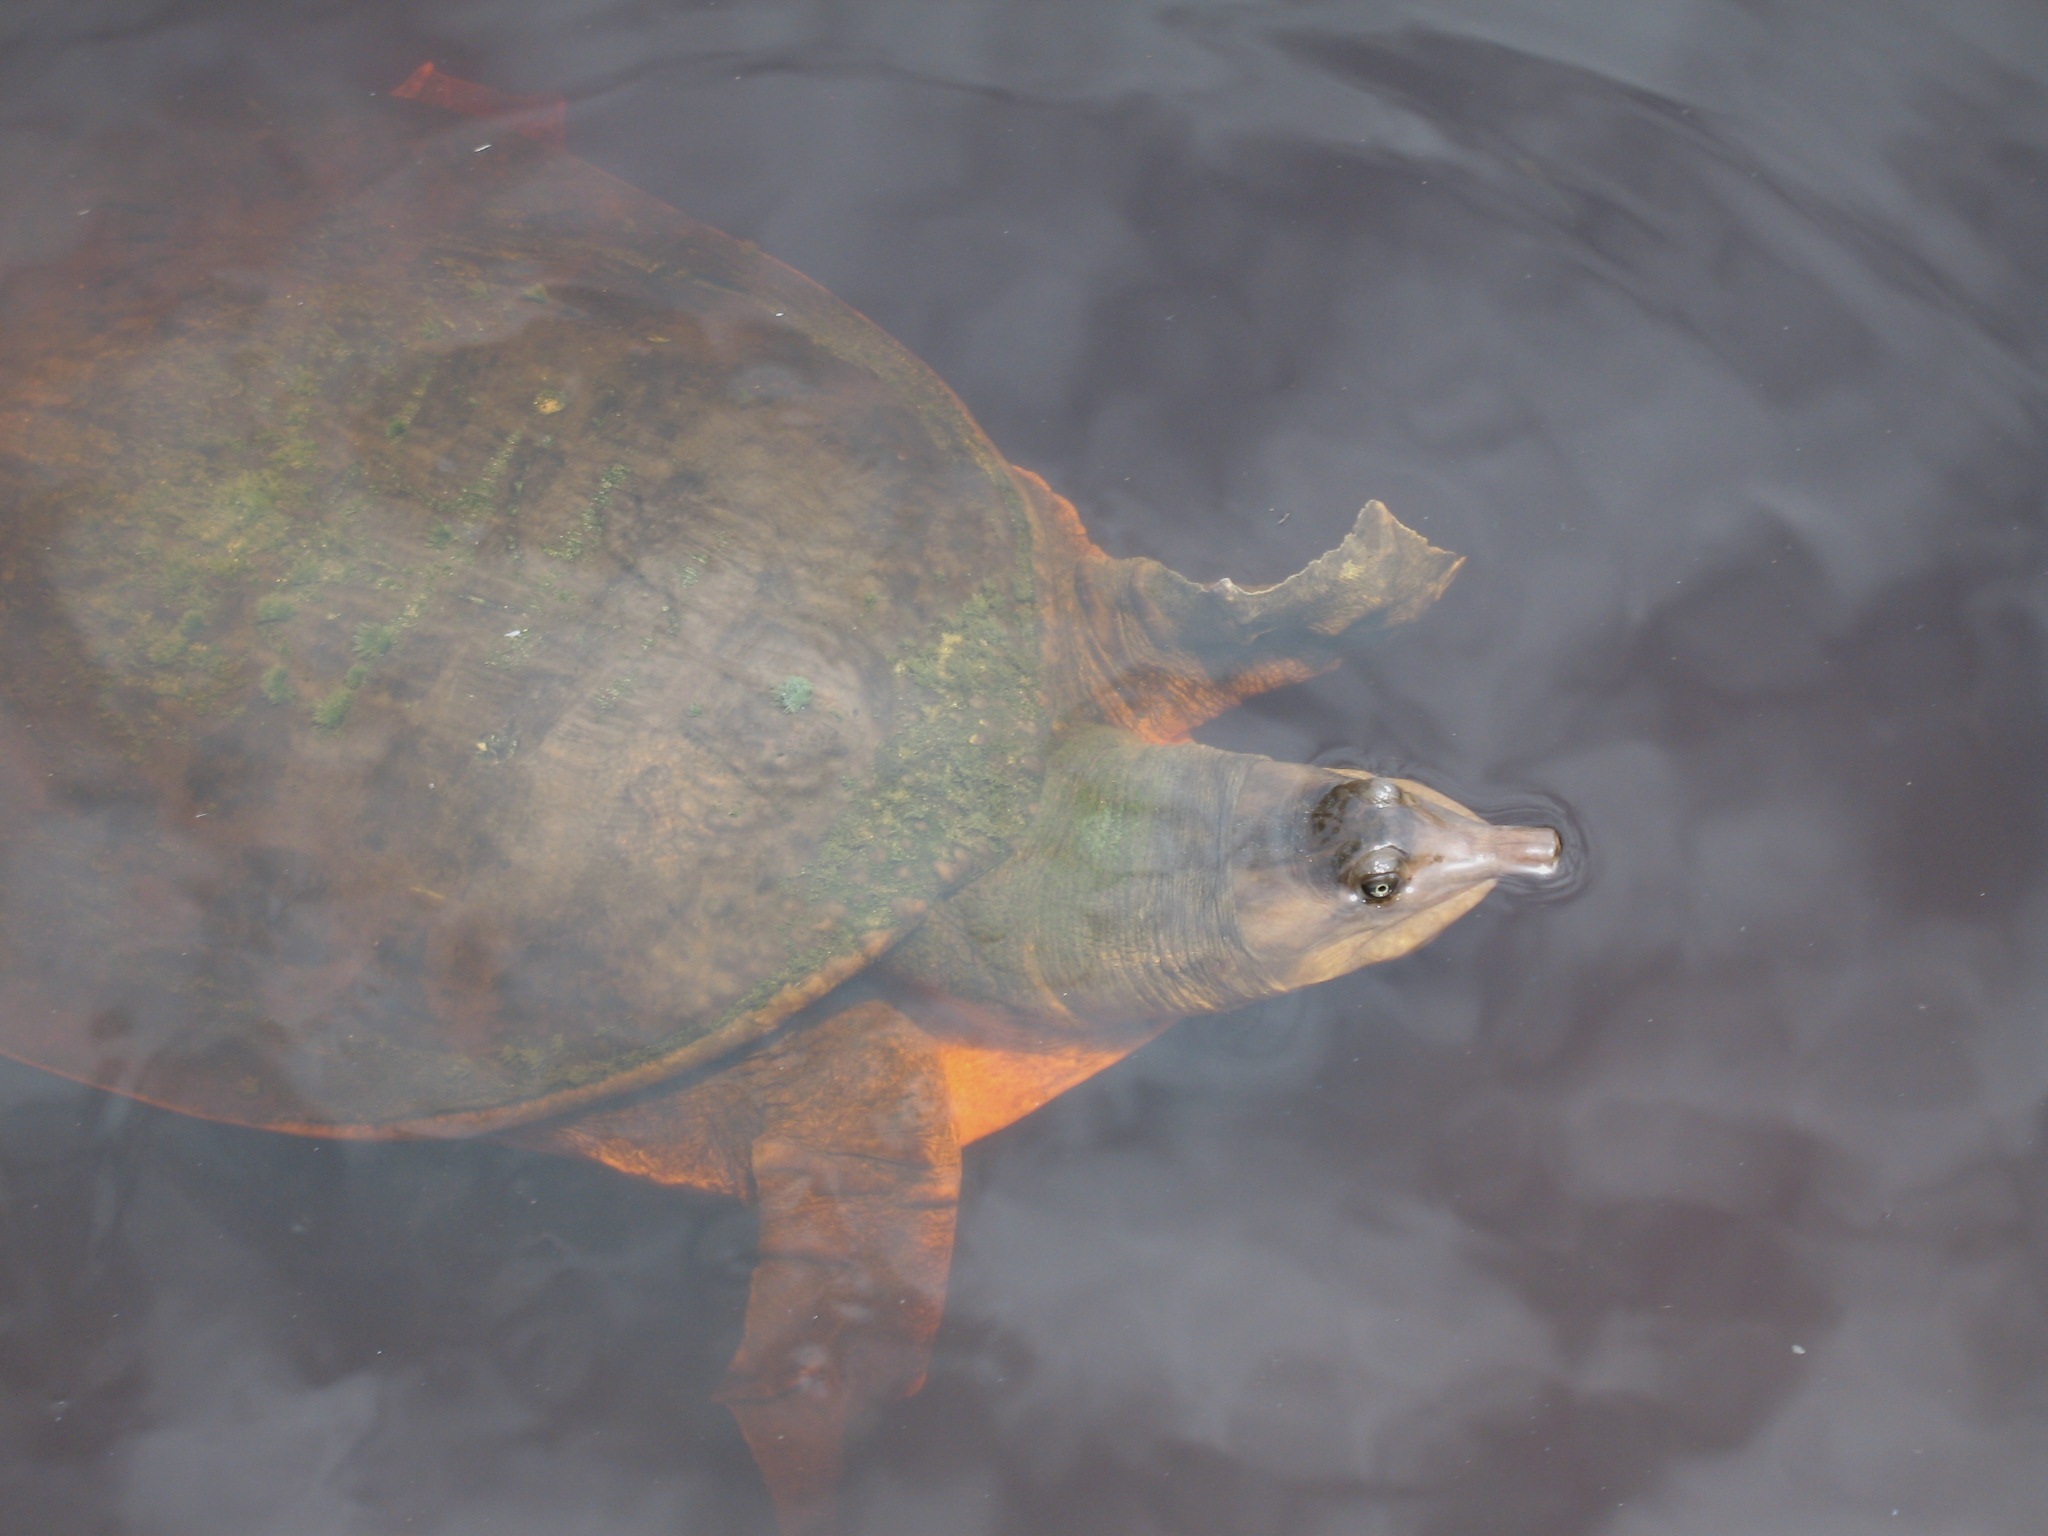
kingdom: Animalia
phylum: Chordata
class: Testudines
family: Trionychidae
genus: Apalone
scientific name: Apalone ferox
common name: Florida softshell turtle
